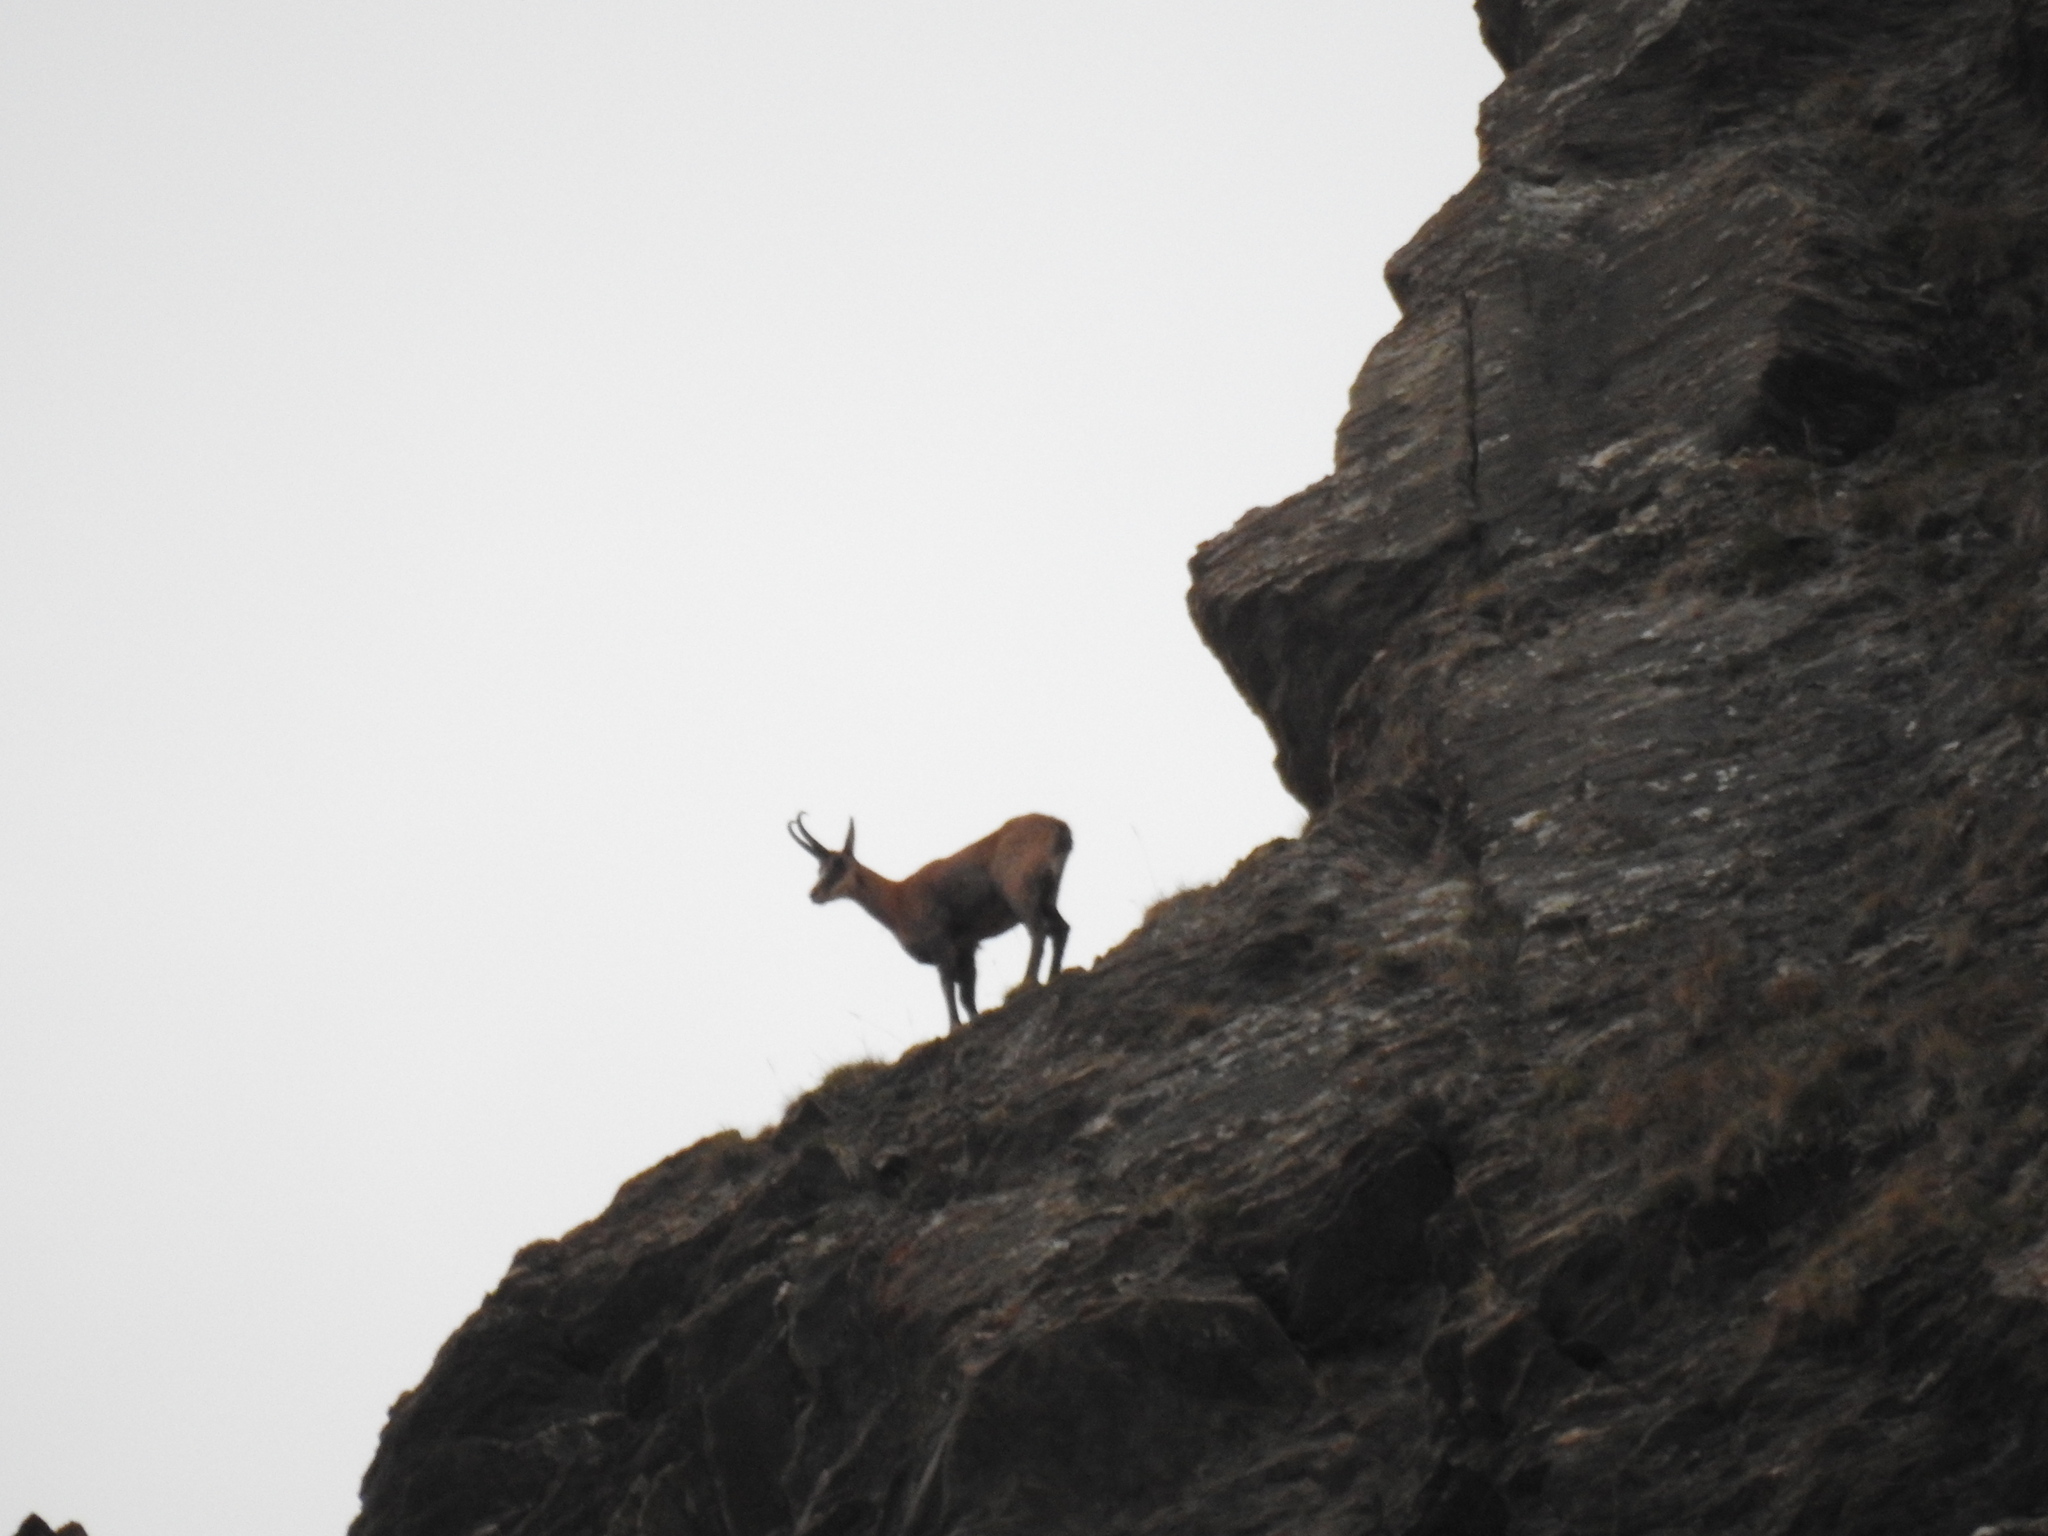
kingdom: Animalia
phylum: Chordata
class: Mammalia
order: Artiodactyla
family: Bovidae
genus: Rupicapra
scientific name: Rupicapra rupicapra
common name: Chamois
